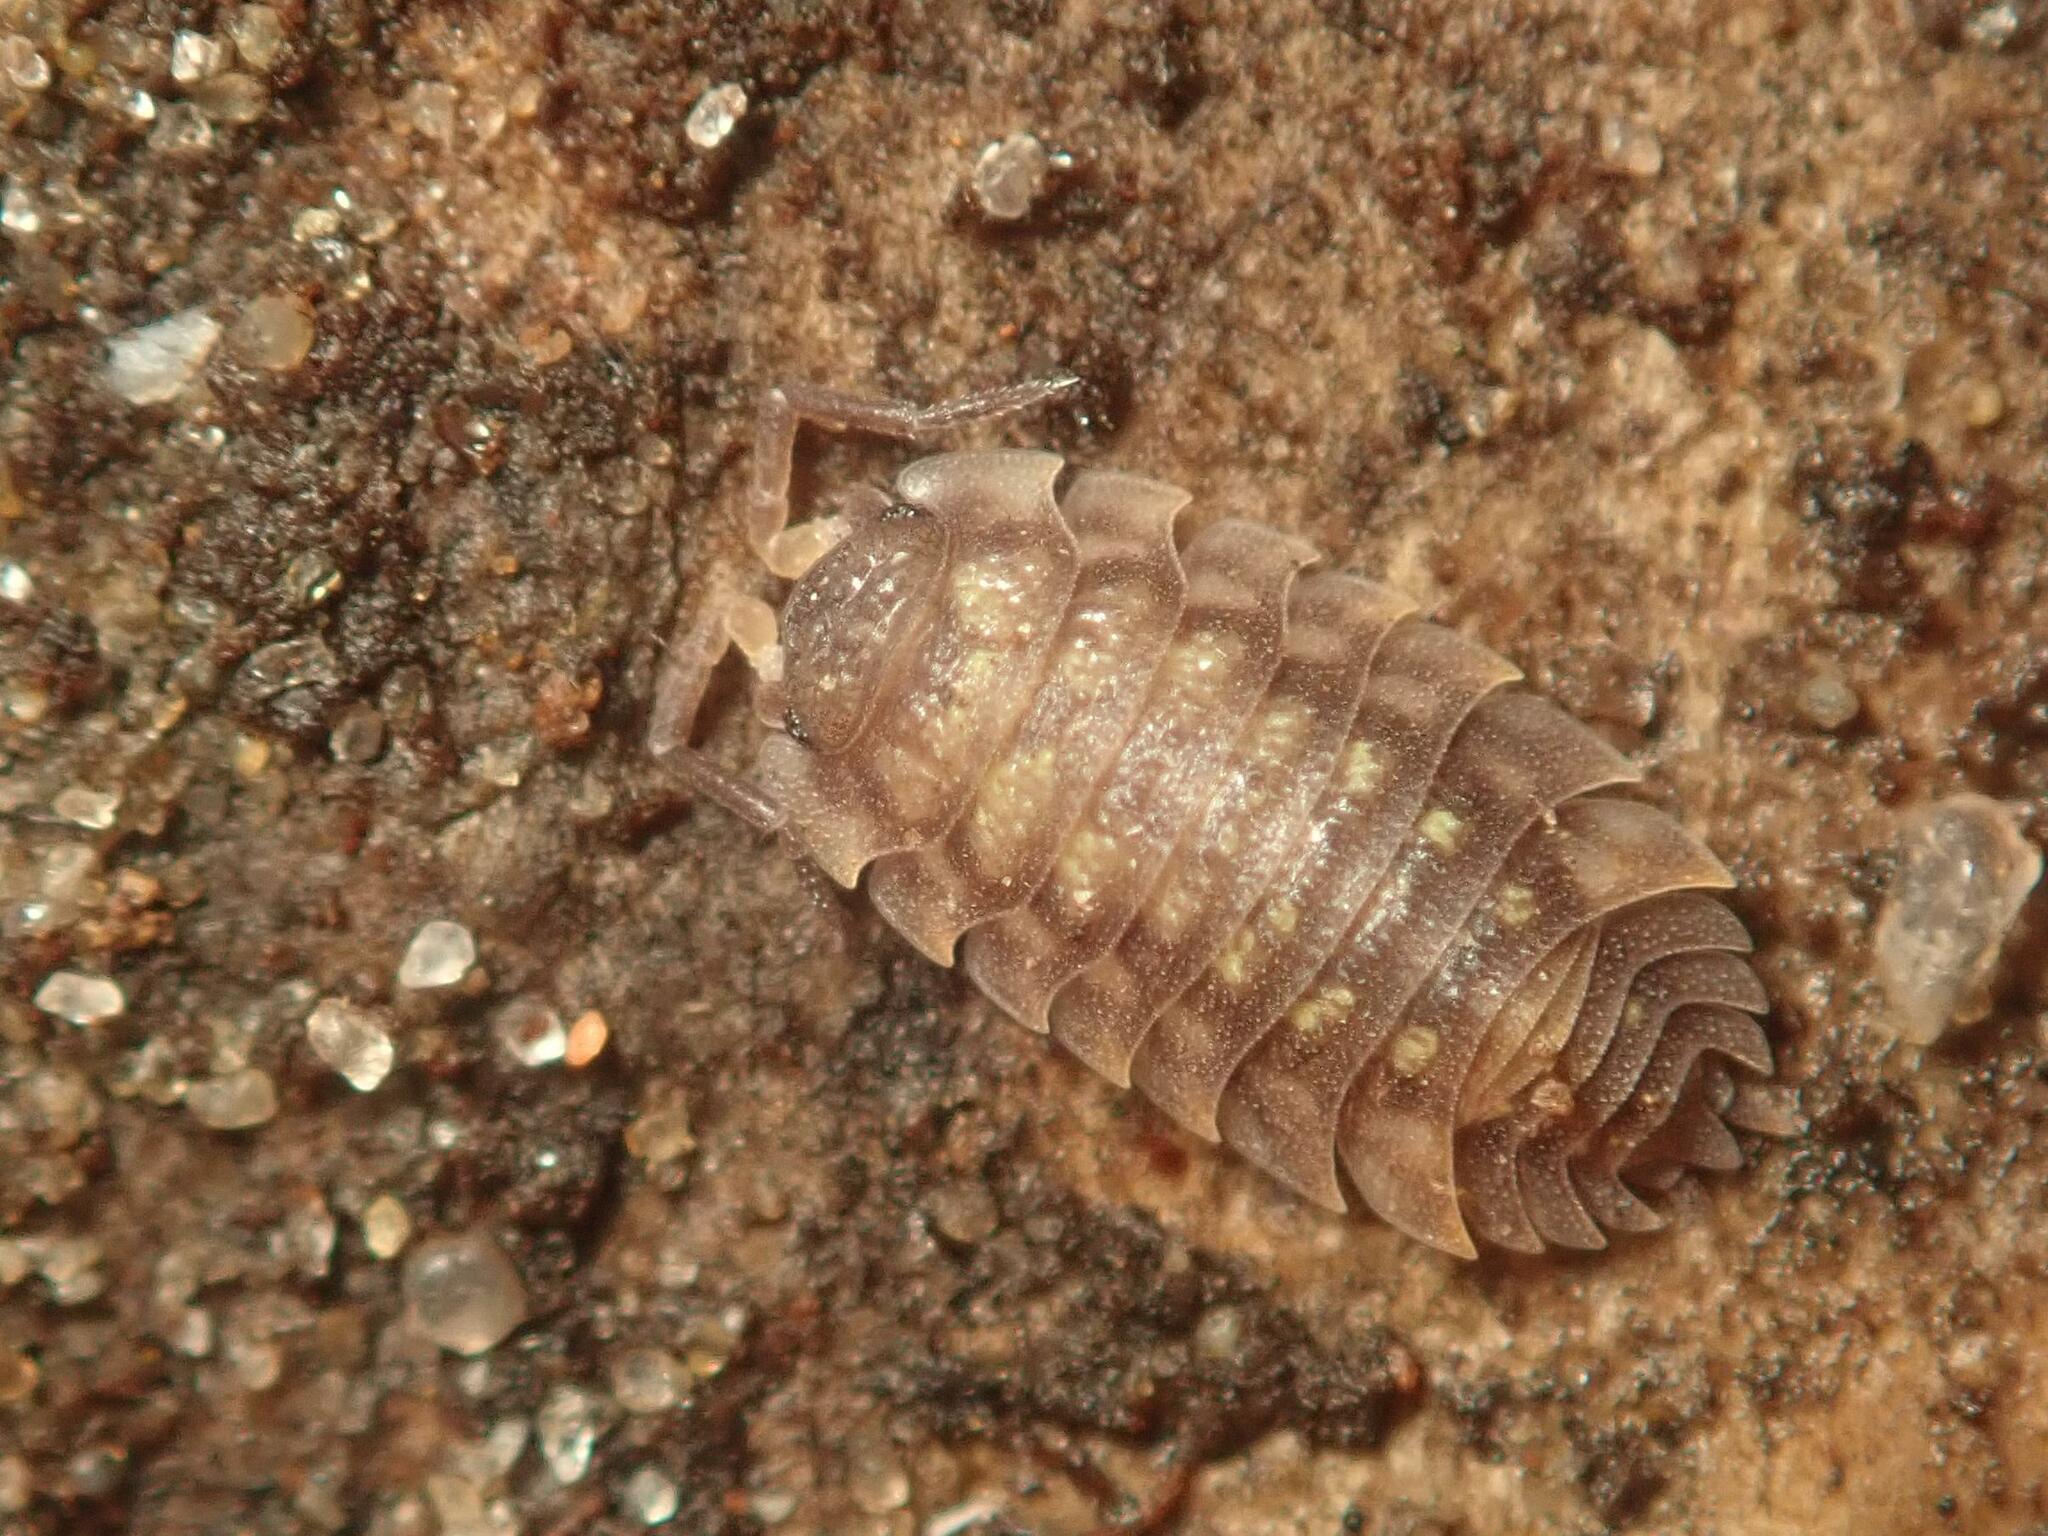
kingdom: Animalia
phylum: Arthropoda
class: Malacostraca
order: Isopoda
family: Oniscidae
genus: Oniscus
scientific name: Oniscus asellus
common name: Common shiny woodlouse
